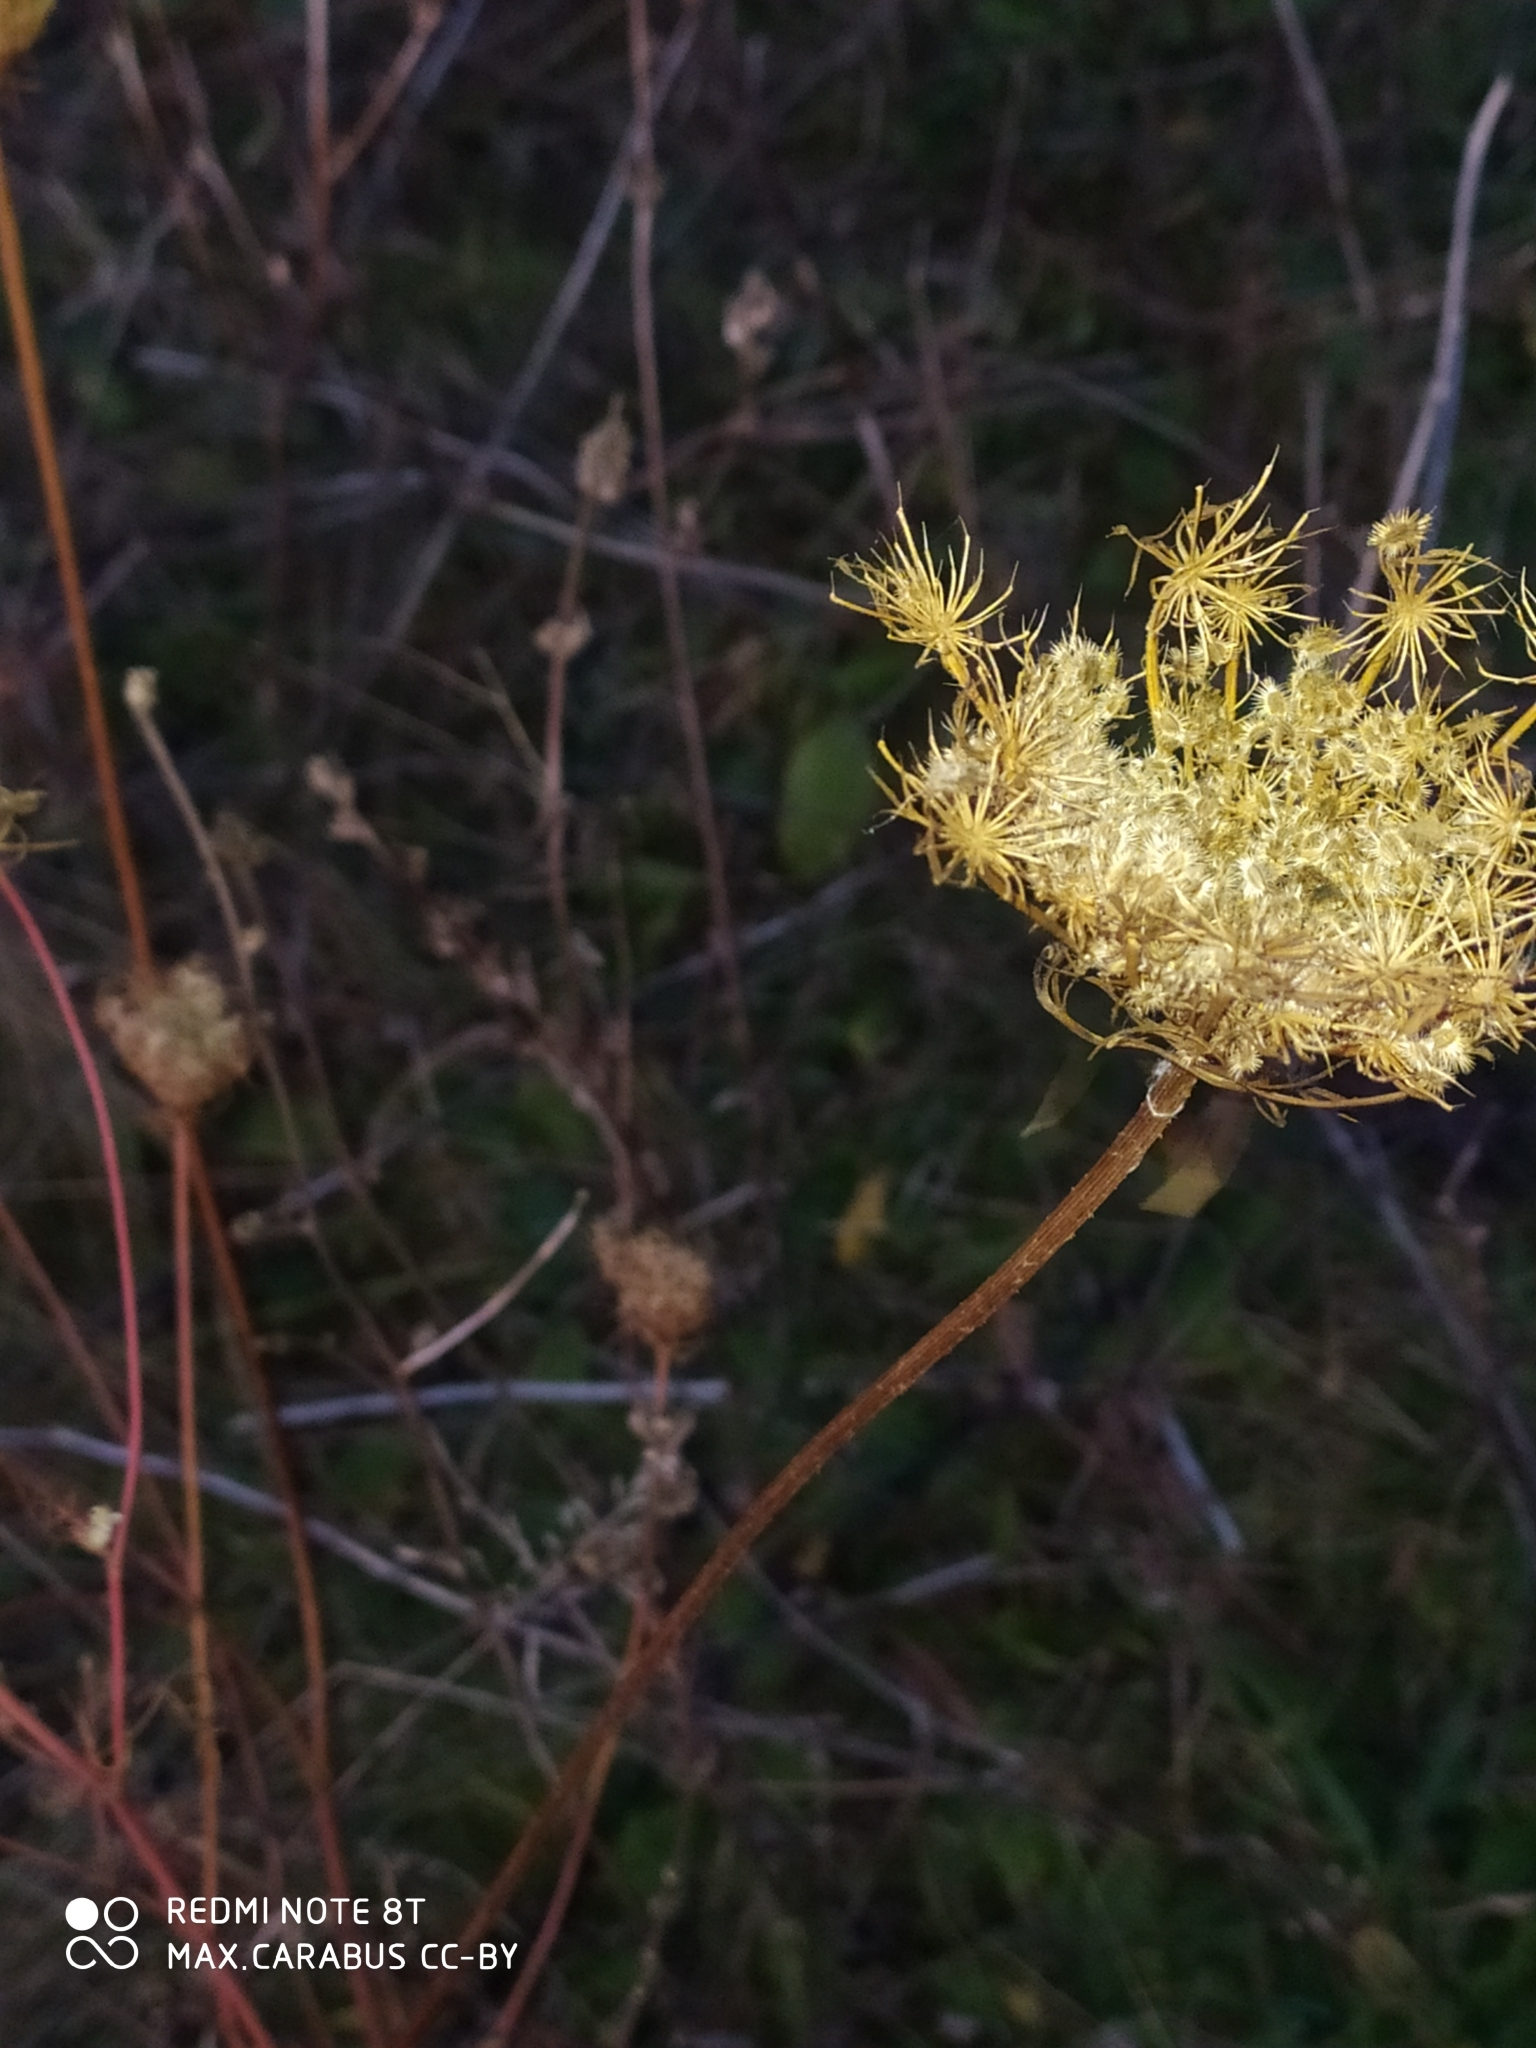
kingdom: Plantae
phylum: Tracheophyta
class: Magnoliopsida
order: Apiales
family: Apiaceae
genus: Daucus
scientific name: Daucus carota
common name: Wild carrot
